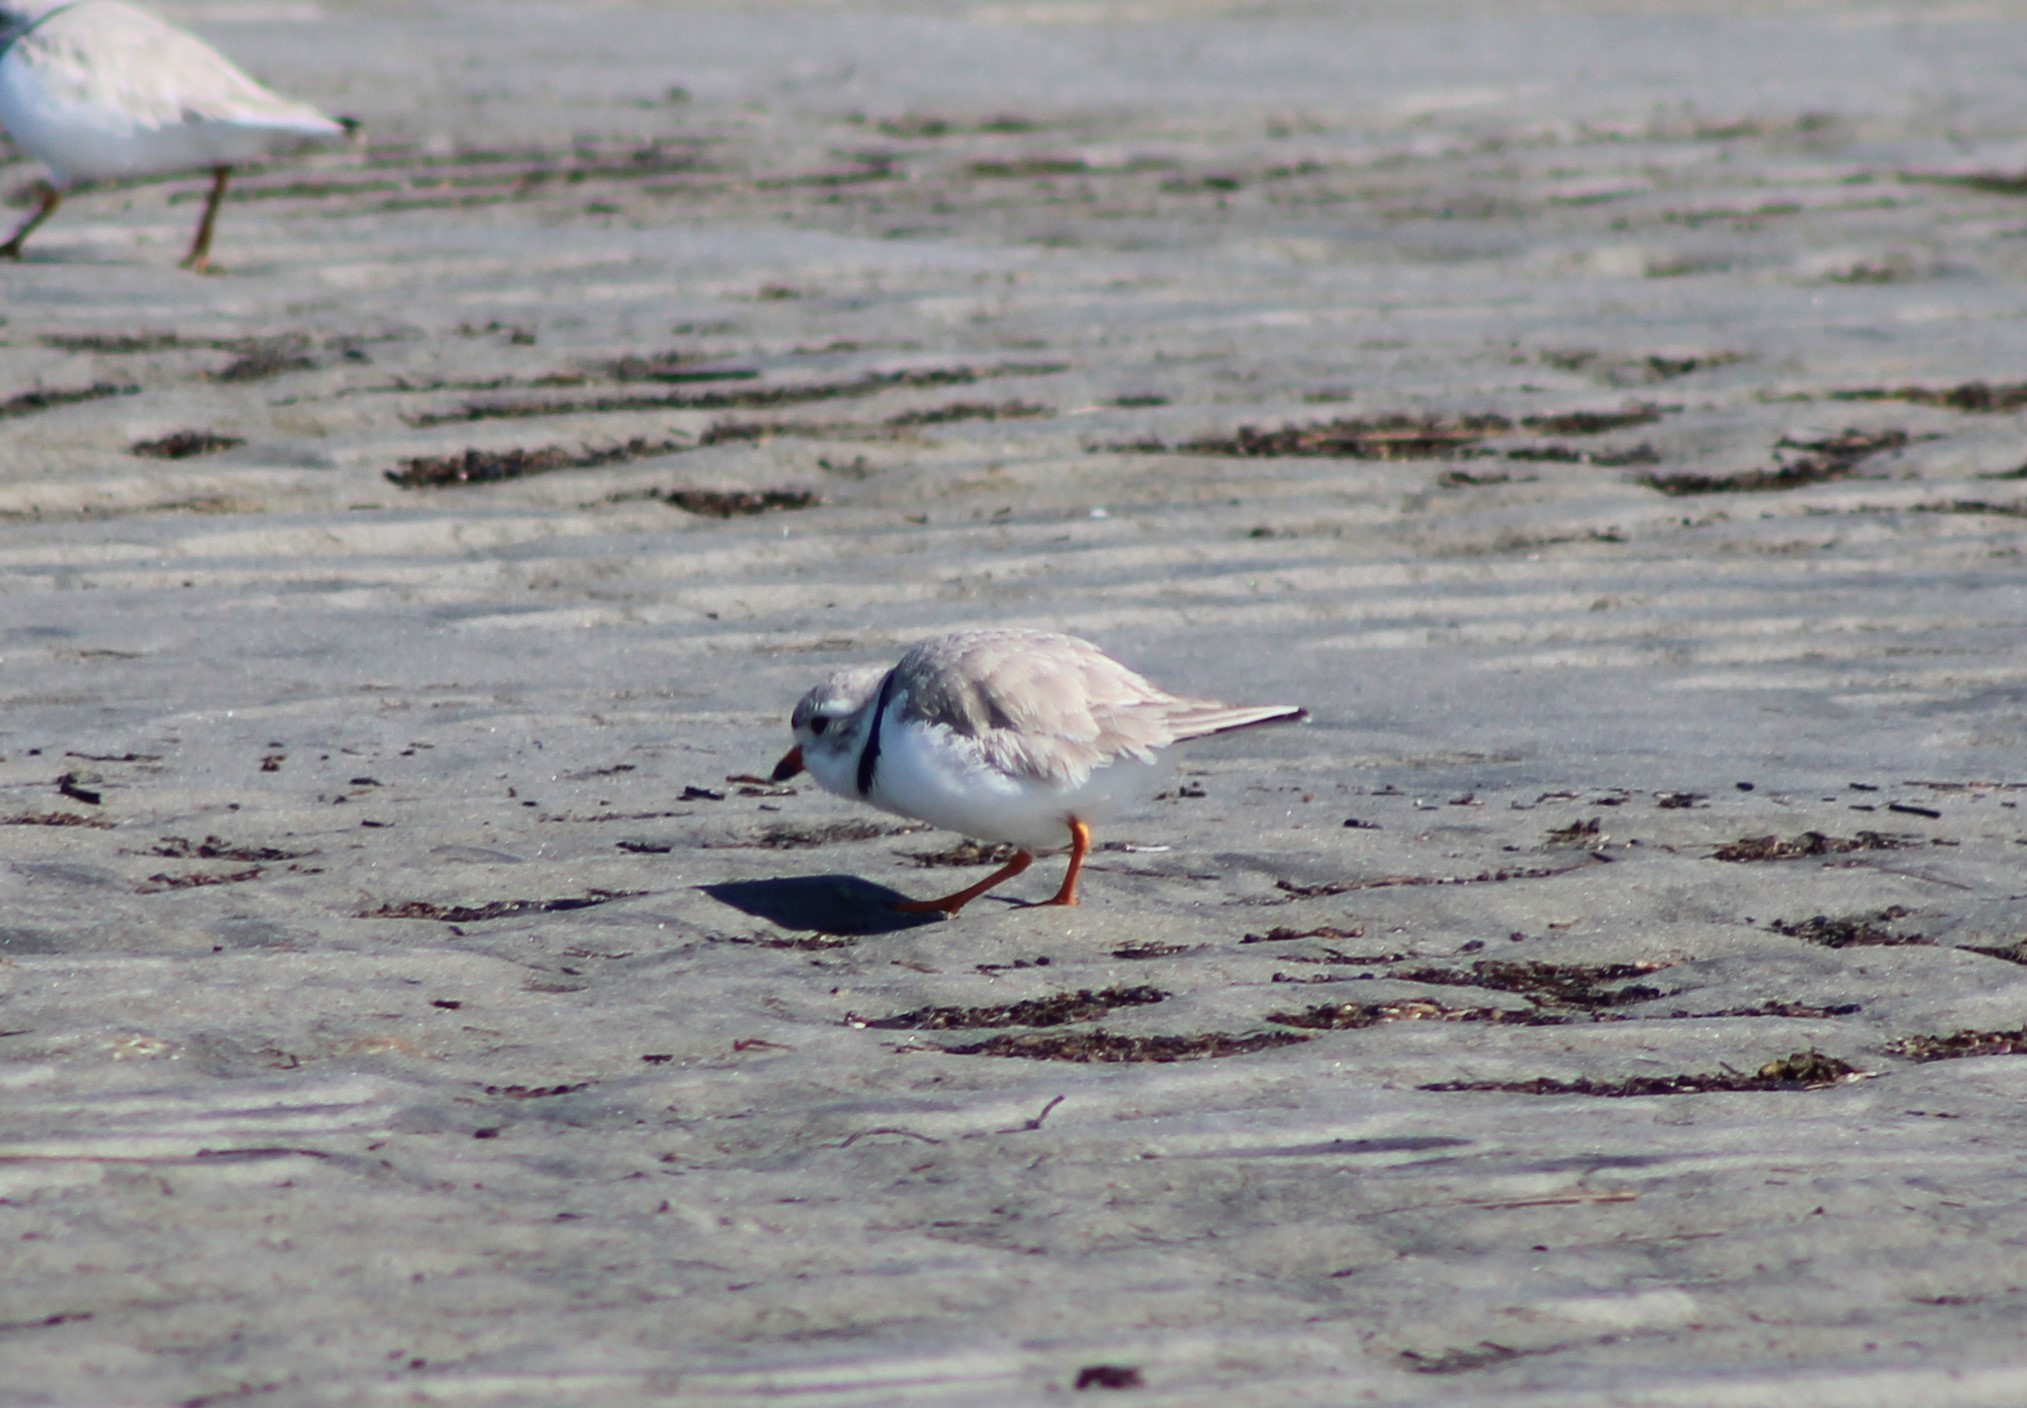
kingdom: Animalia
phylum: Chordata
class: Aves
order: Charadriiformes
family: Charadriidae
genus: Charadrius
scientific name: Charadrius melodus
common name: Piping plover
